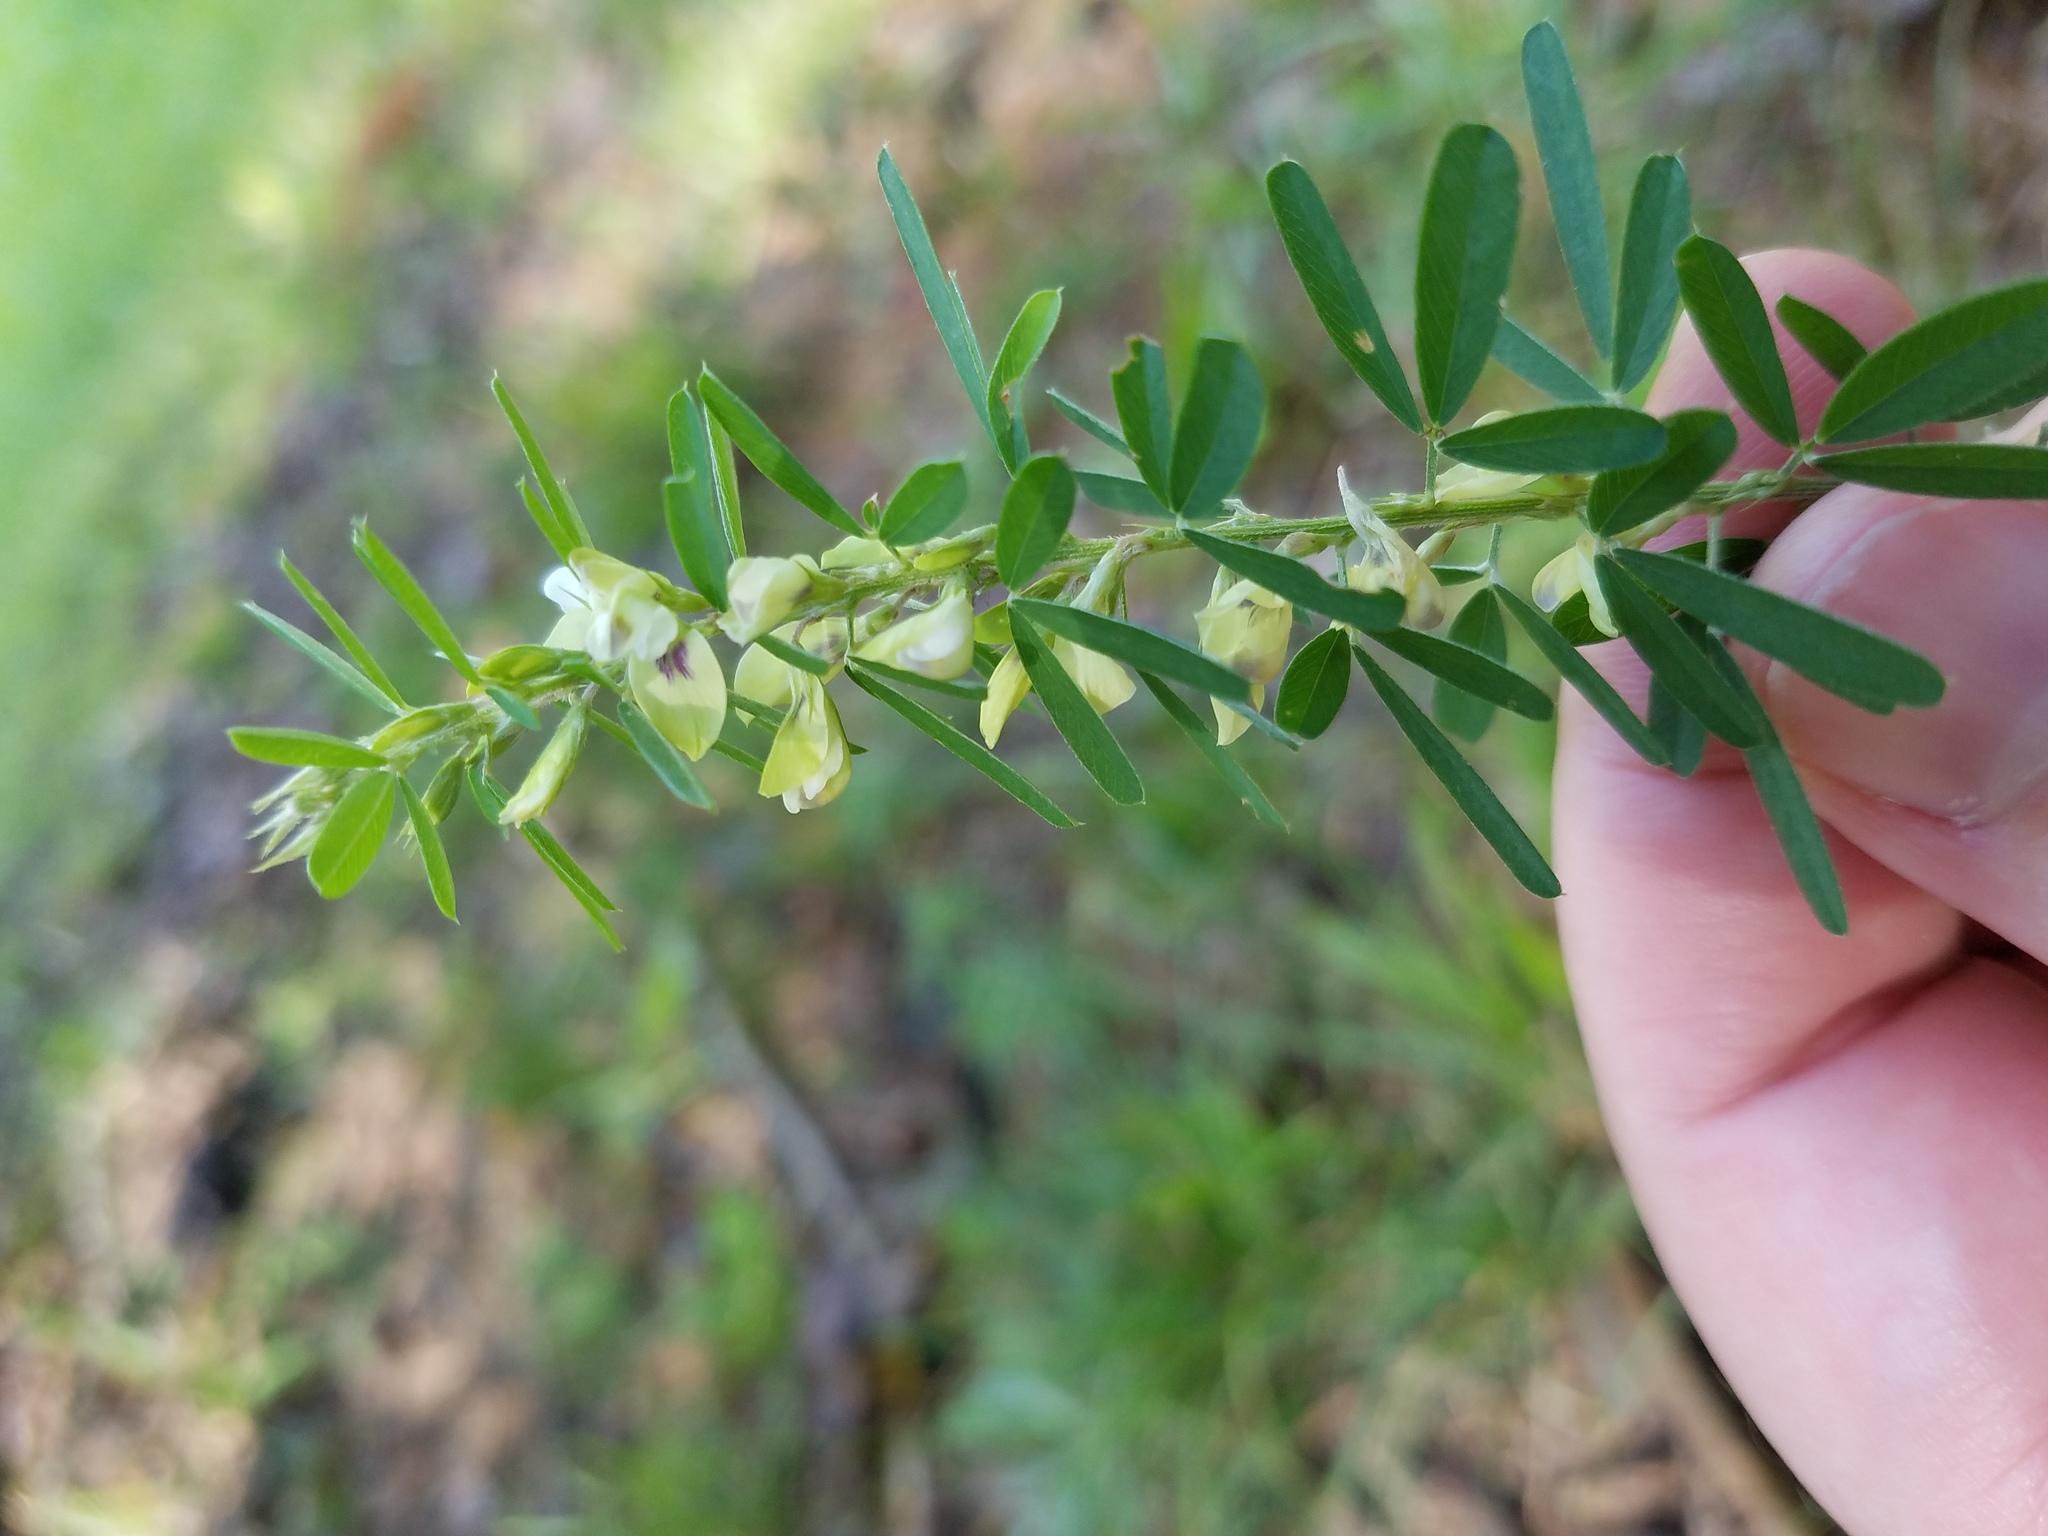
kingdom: Plantae
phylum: Tracheophyta
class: Magnoliopsida
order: Fabales
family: Fabaceae
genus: Lespedeza
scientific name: Lespedeza cuneata
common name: Chinese bush-clover
